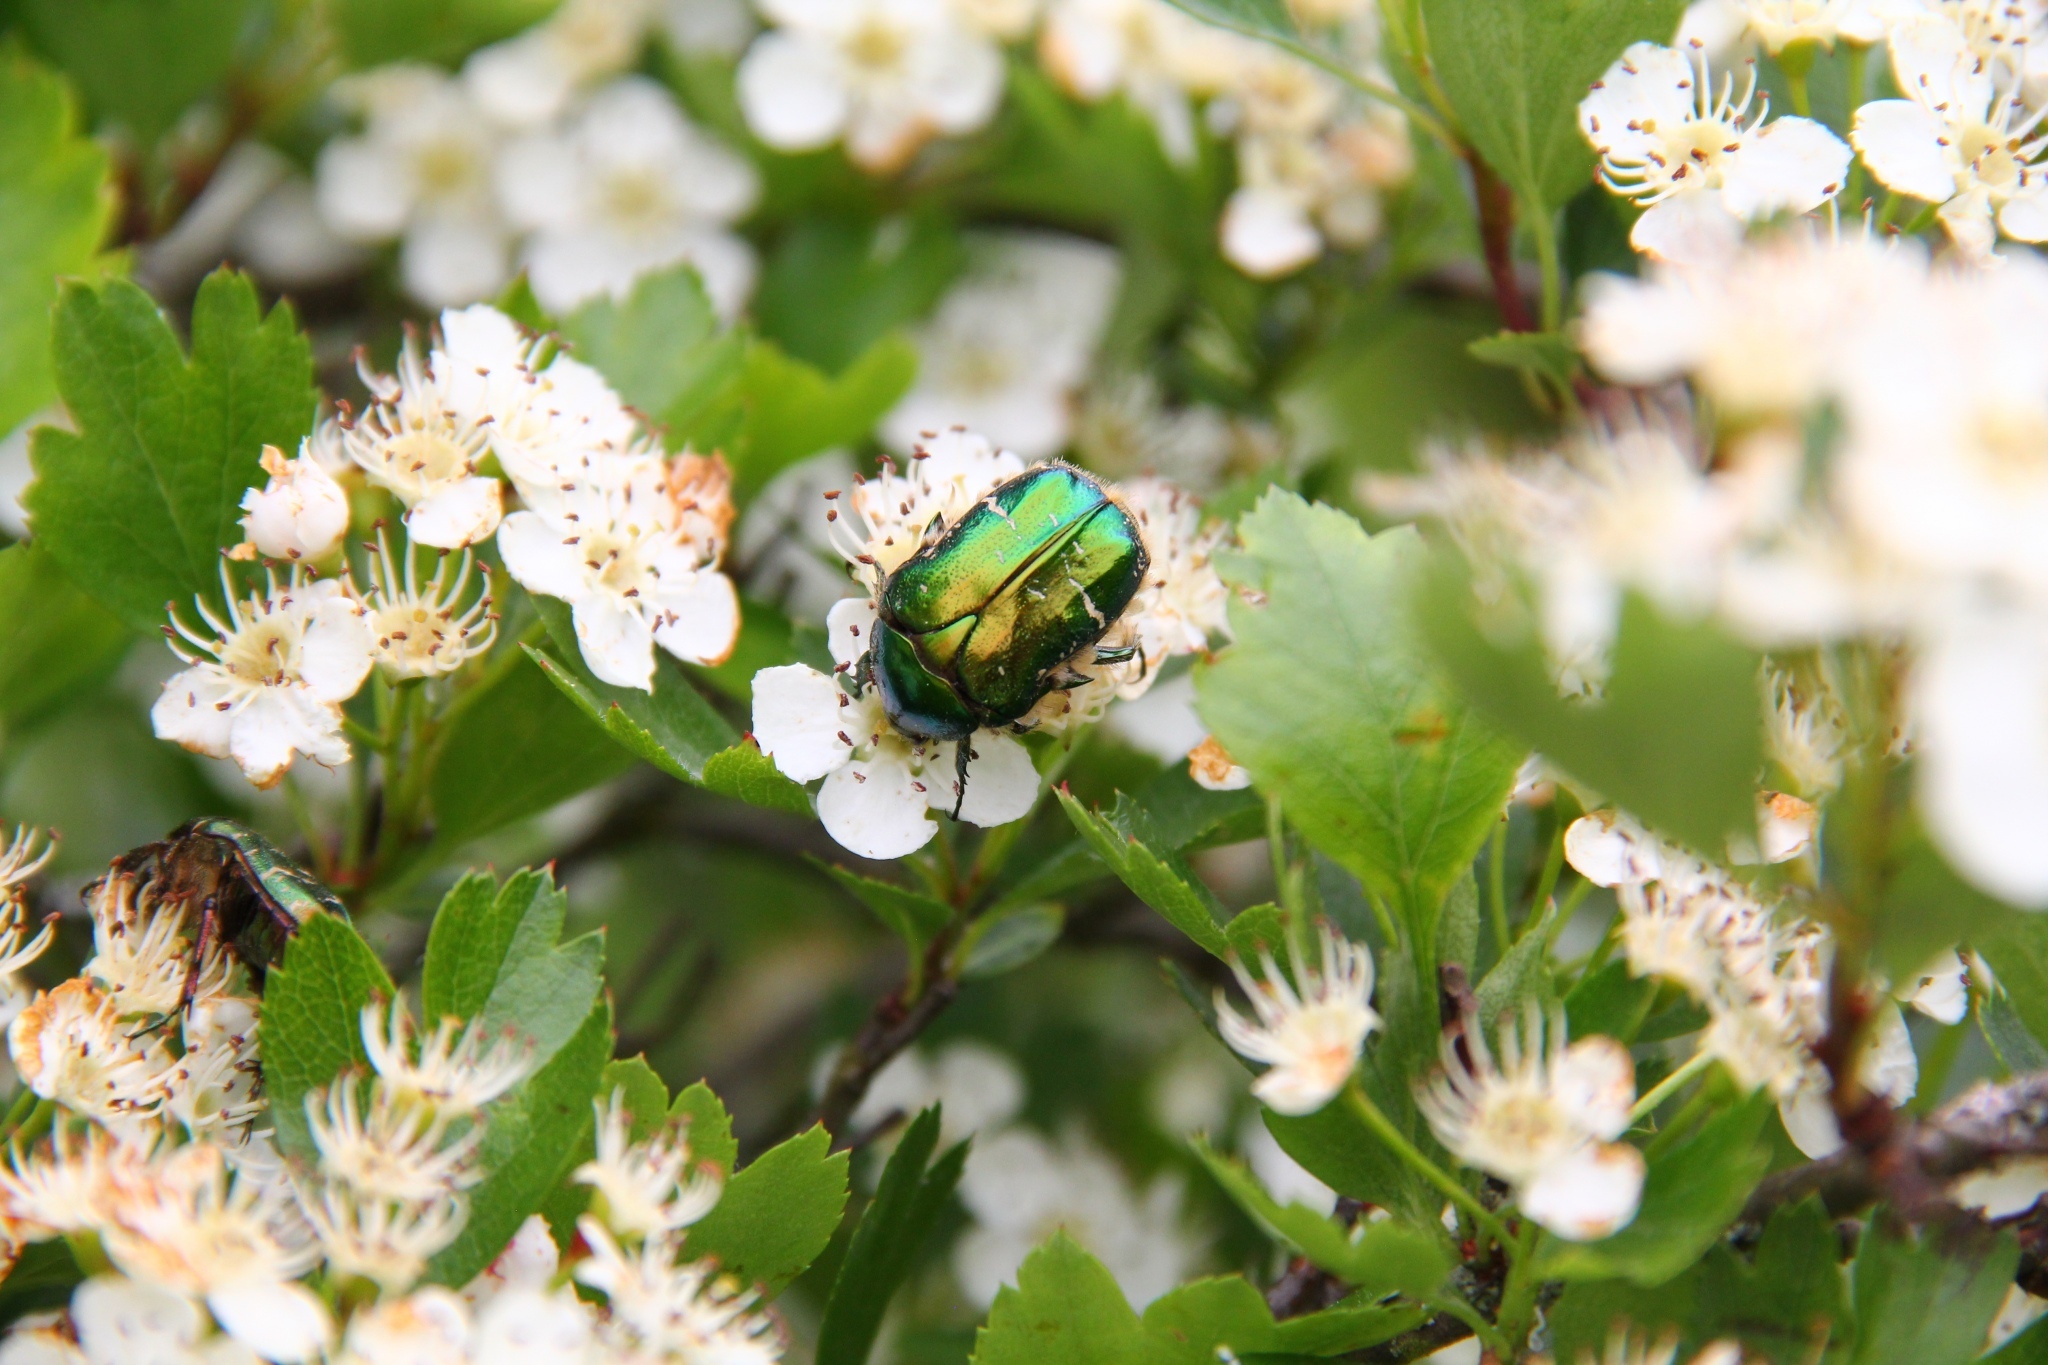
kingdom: Animalia
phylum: Arthropoda
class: Insecta
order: Coleoptera
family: Scarabaeidae
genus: Cetonia
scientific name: Cetonia aurata
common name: Rose chafer
